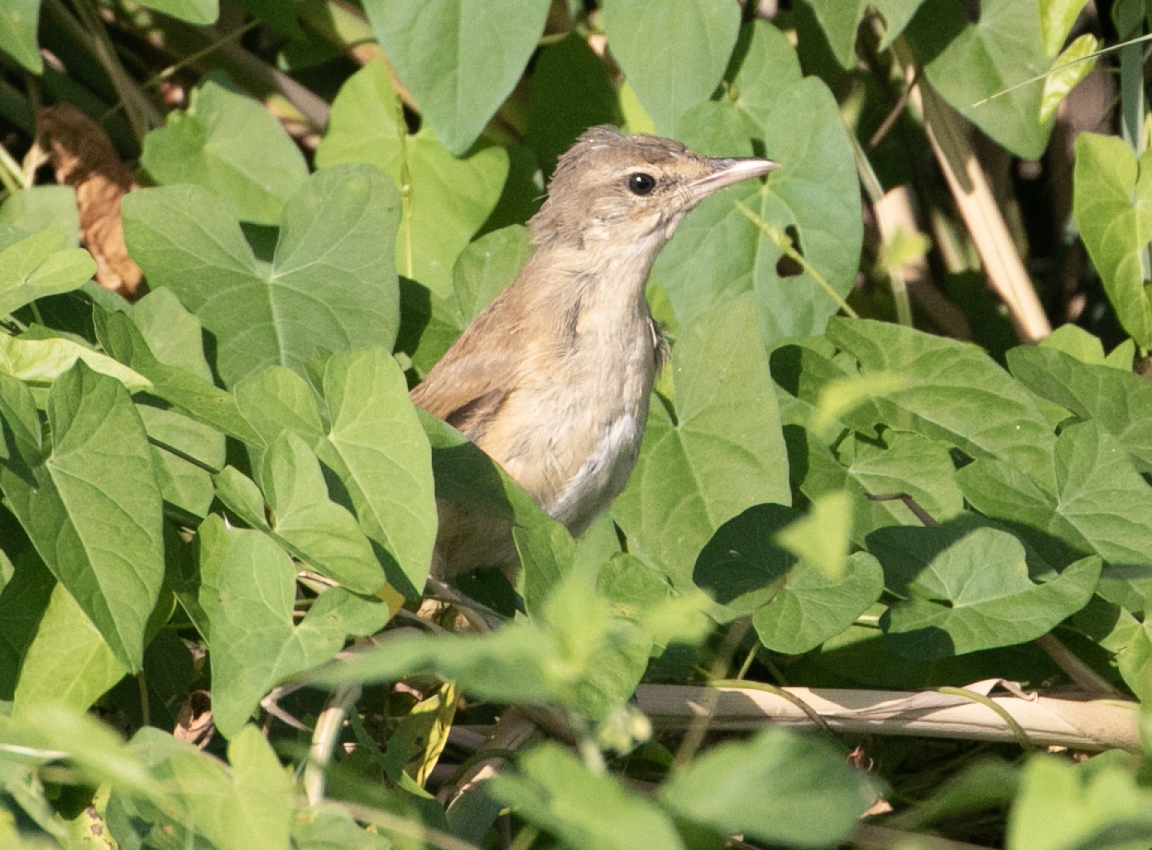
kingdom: Animalia
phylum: Chordata
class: Aves
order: Passeriformes
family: Acrocephalidae
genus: Acrocephalus
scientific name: Acrocephalus arundinaceus
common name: Great reed warbler
